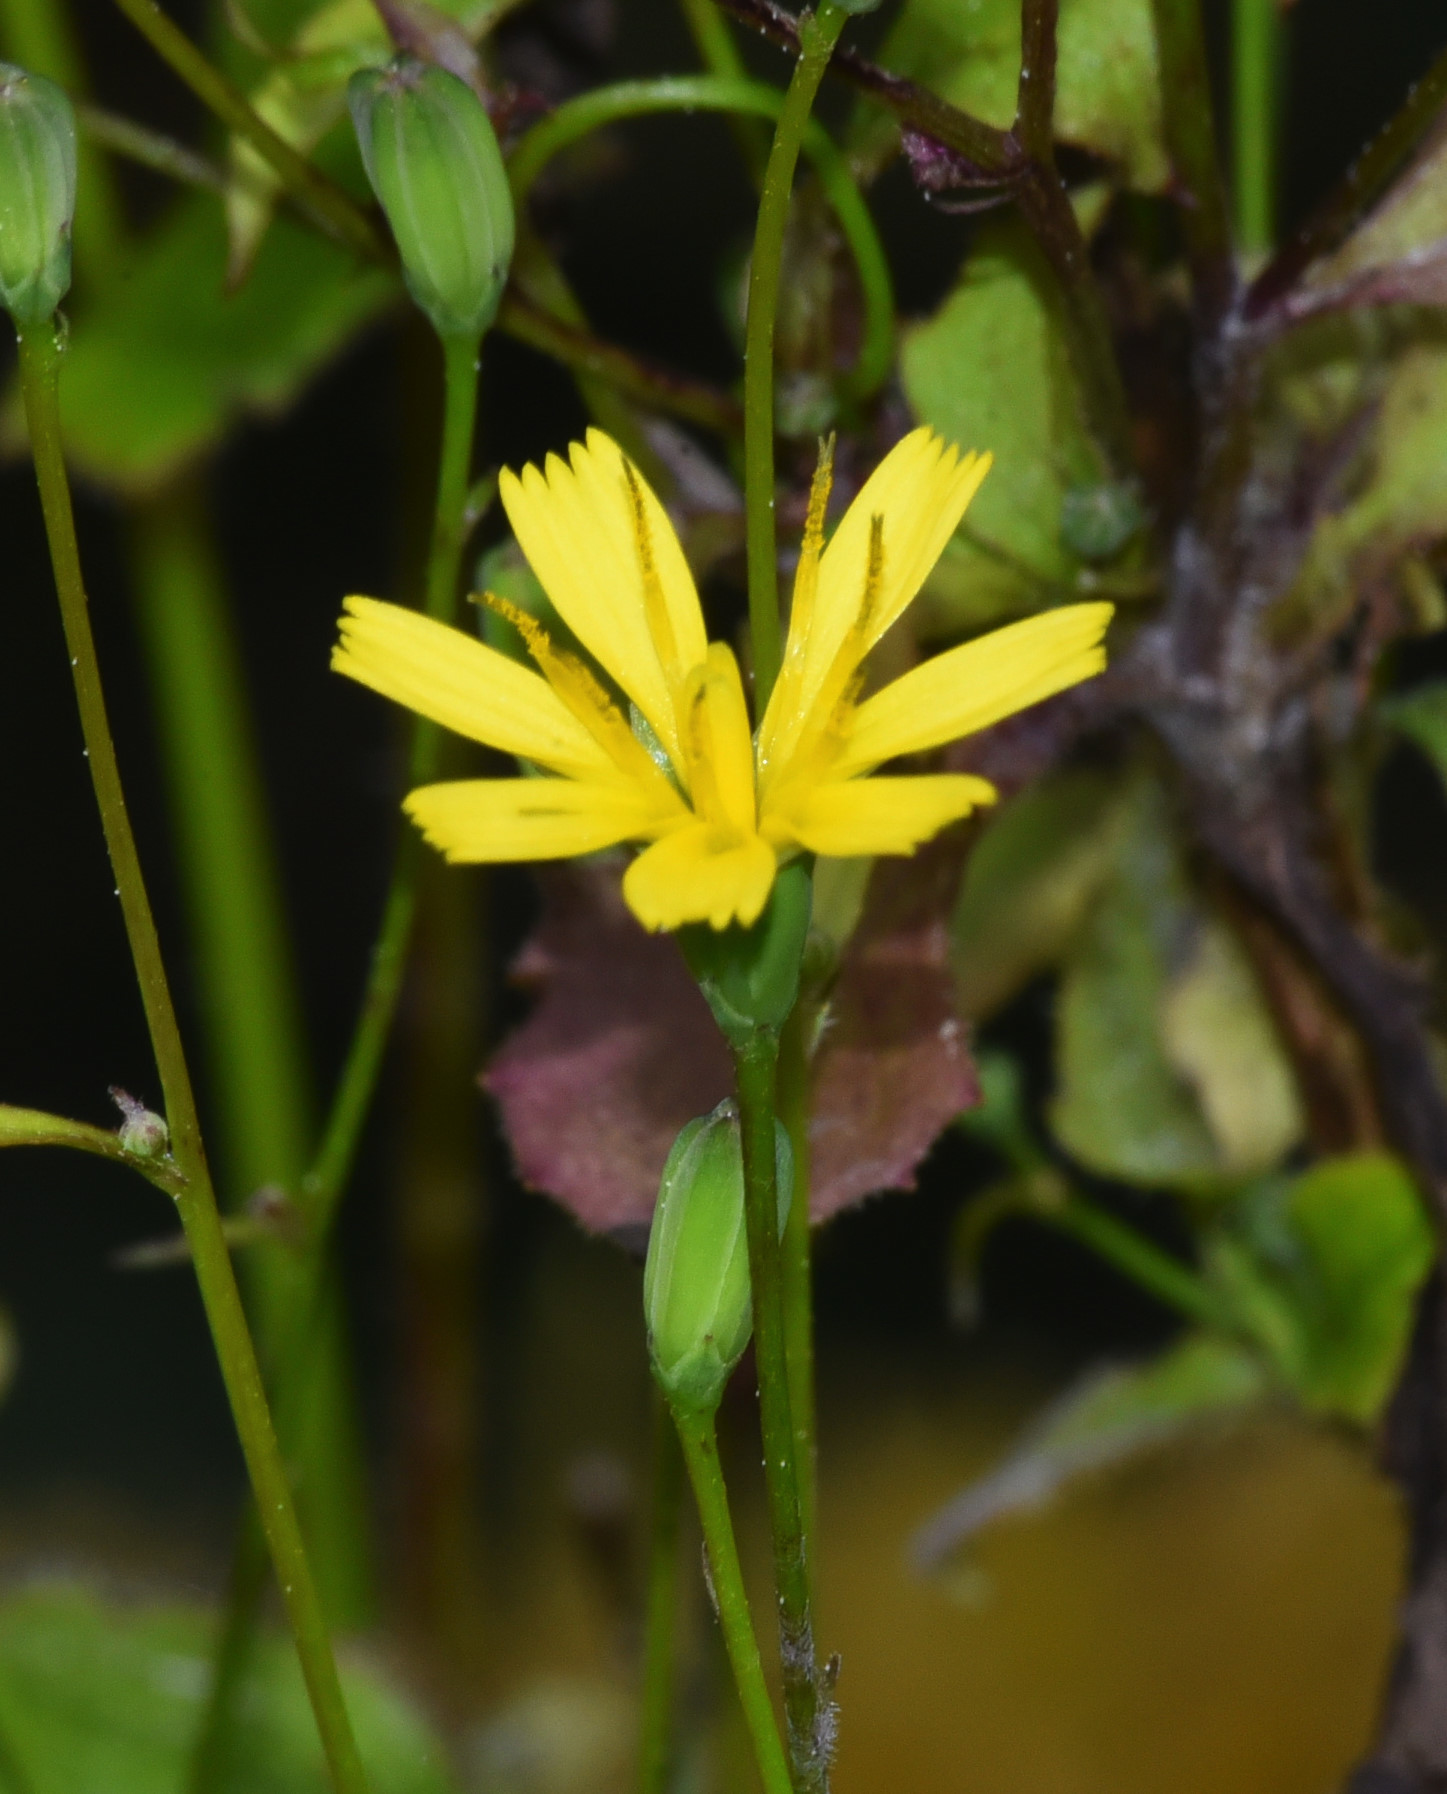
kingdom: Plantae
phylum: Tracheophyta
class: Magnoliopsida
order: Asterales
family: Asteraceae
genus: Lapsana
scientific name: Lapsana communis
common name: Nipplewort
